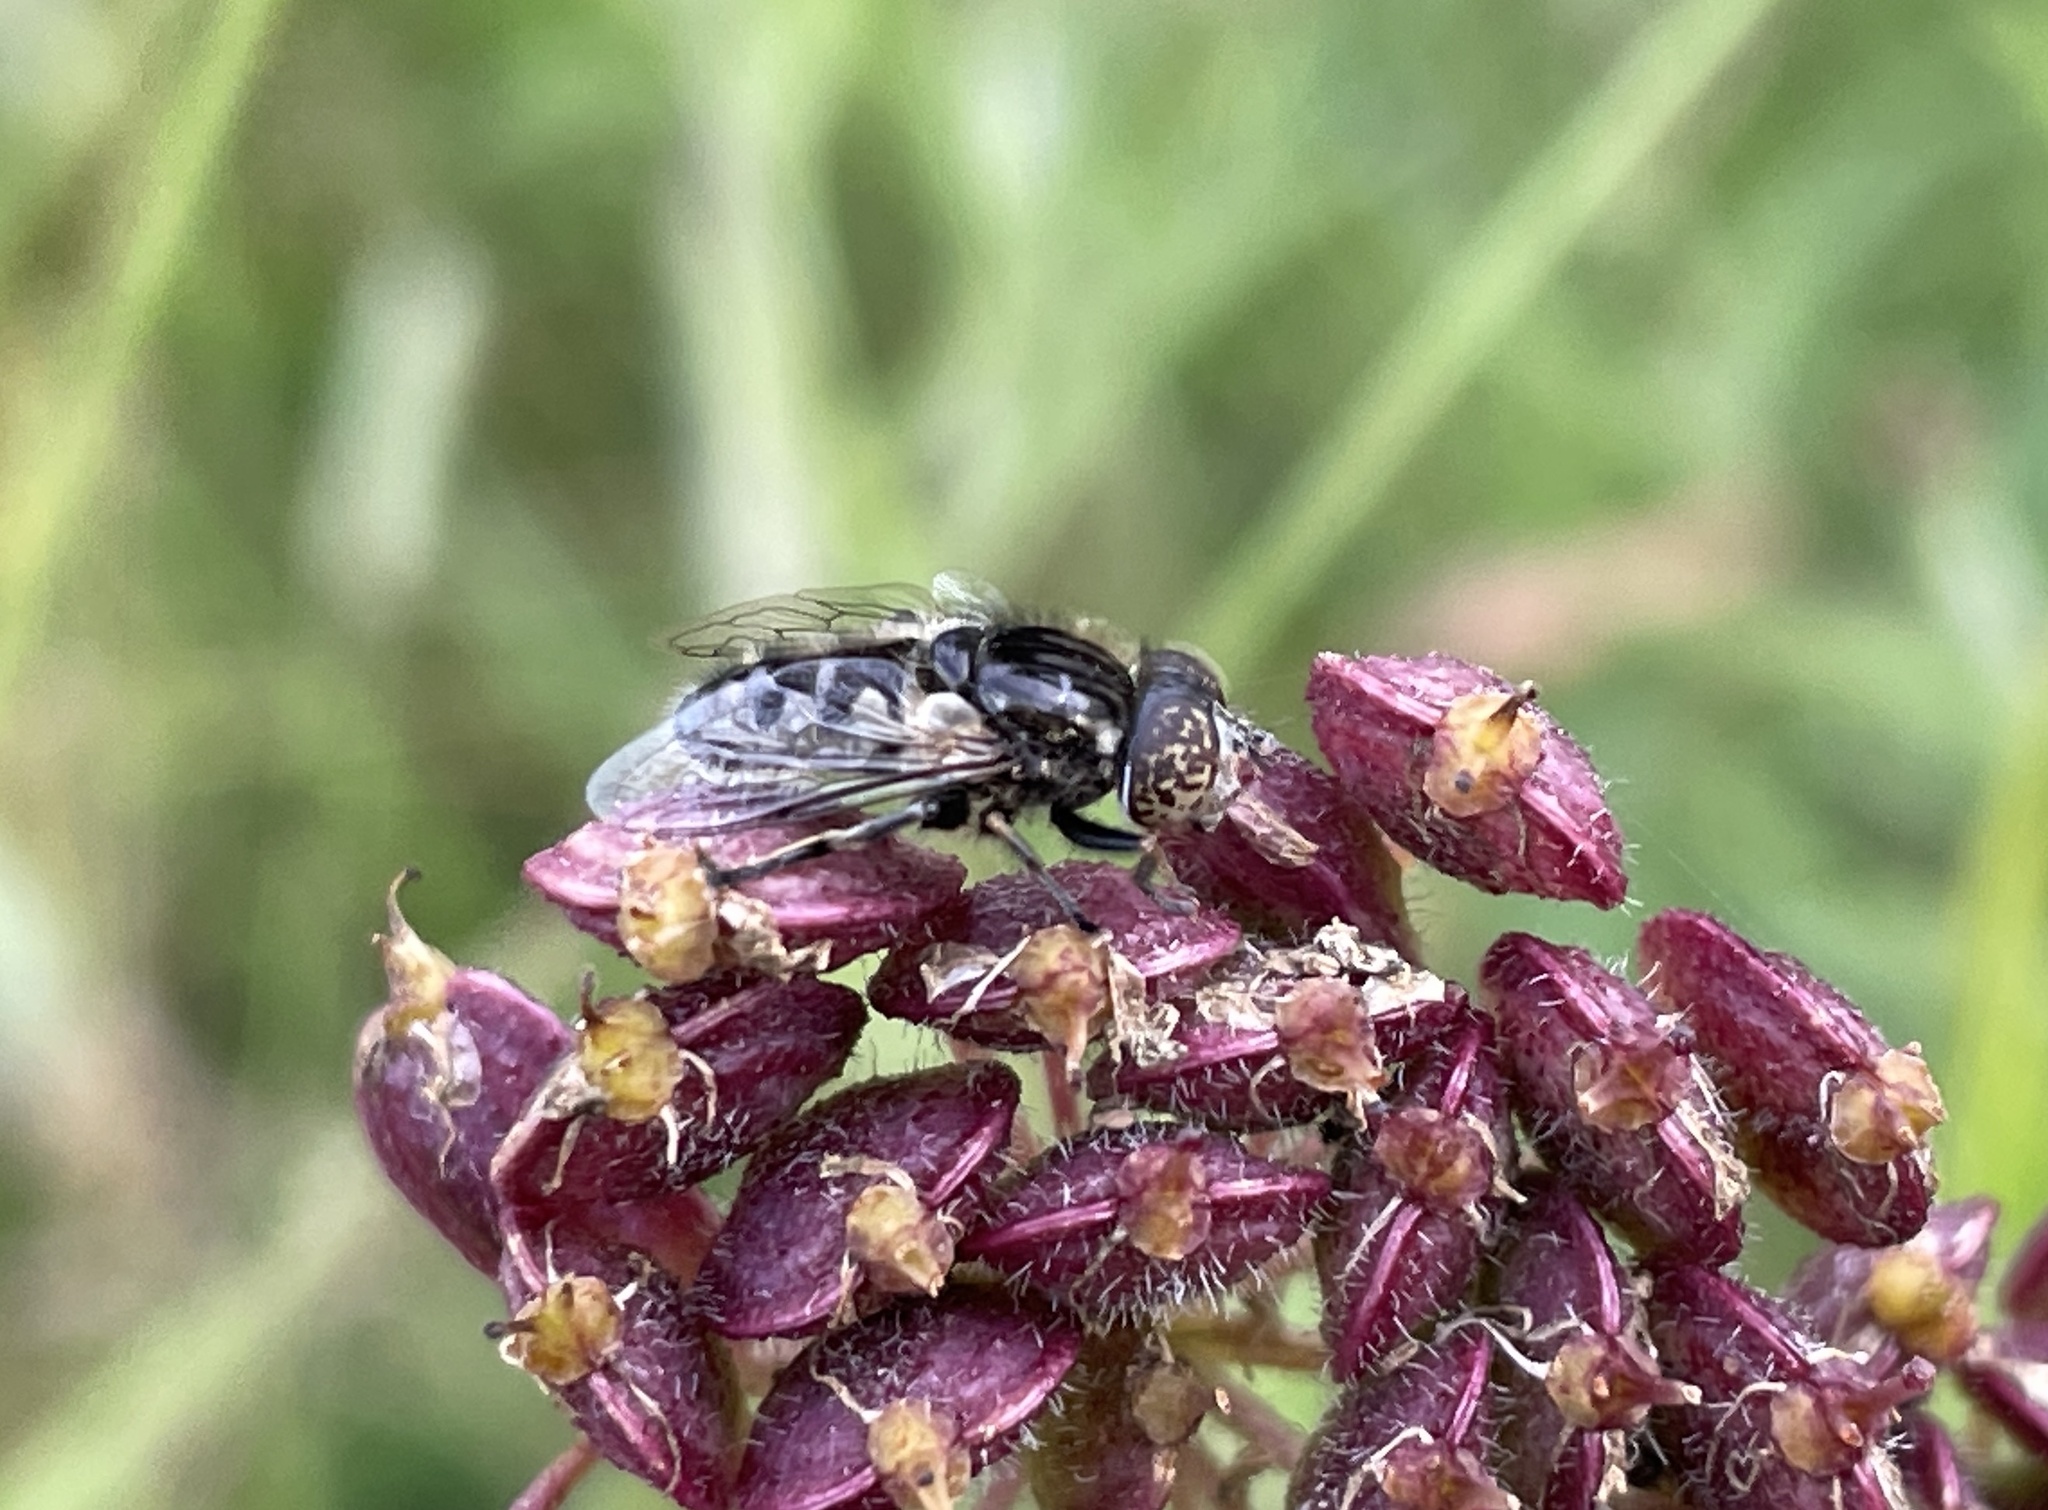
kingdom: Animalia
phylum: Arthropoda
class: Insecta
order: Diptera
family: Syrphidae
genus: Eristalinus
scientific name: Eristalinus sepulchralis
